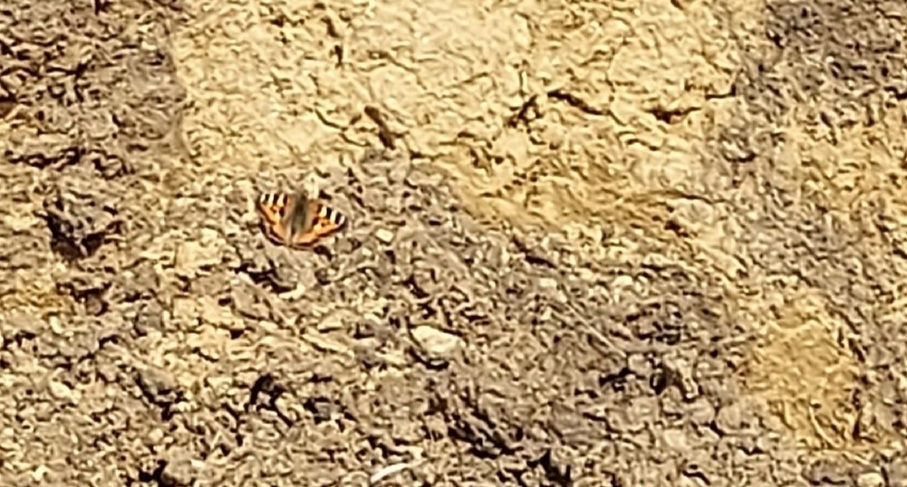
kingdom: Animalia
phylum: Arthropoda
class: Insecta
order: Lepidoptera
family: Nymphalidae
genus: Aglais
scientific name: Aglais urticae
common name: Small tortoiseshell
